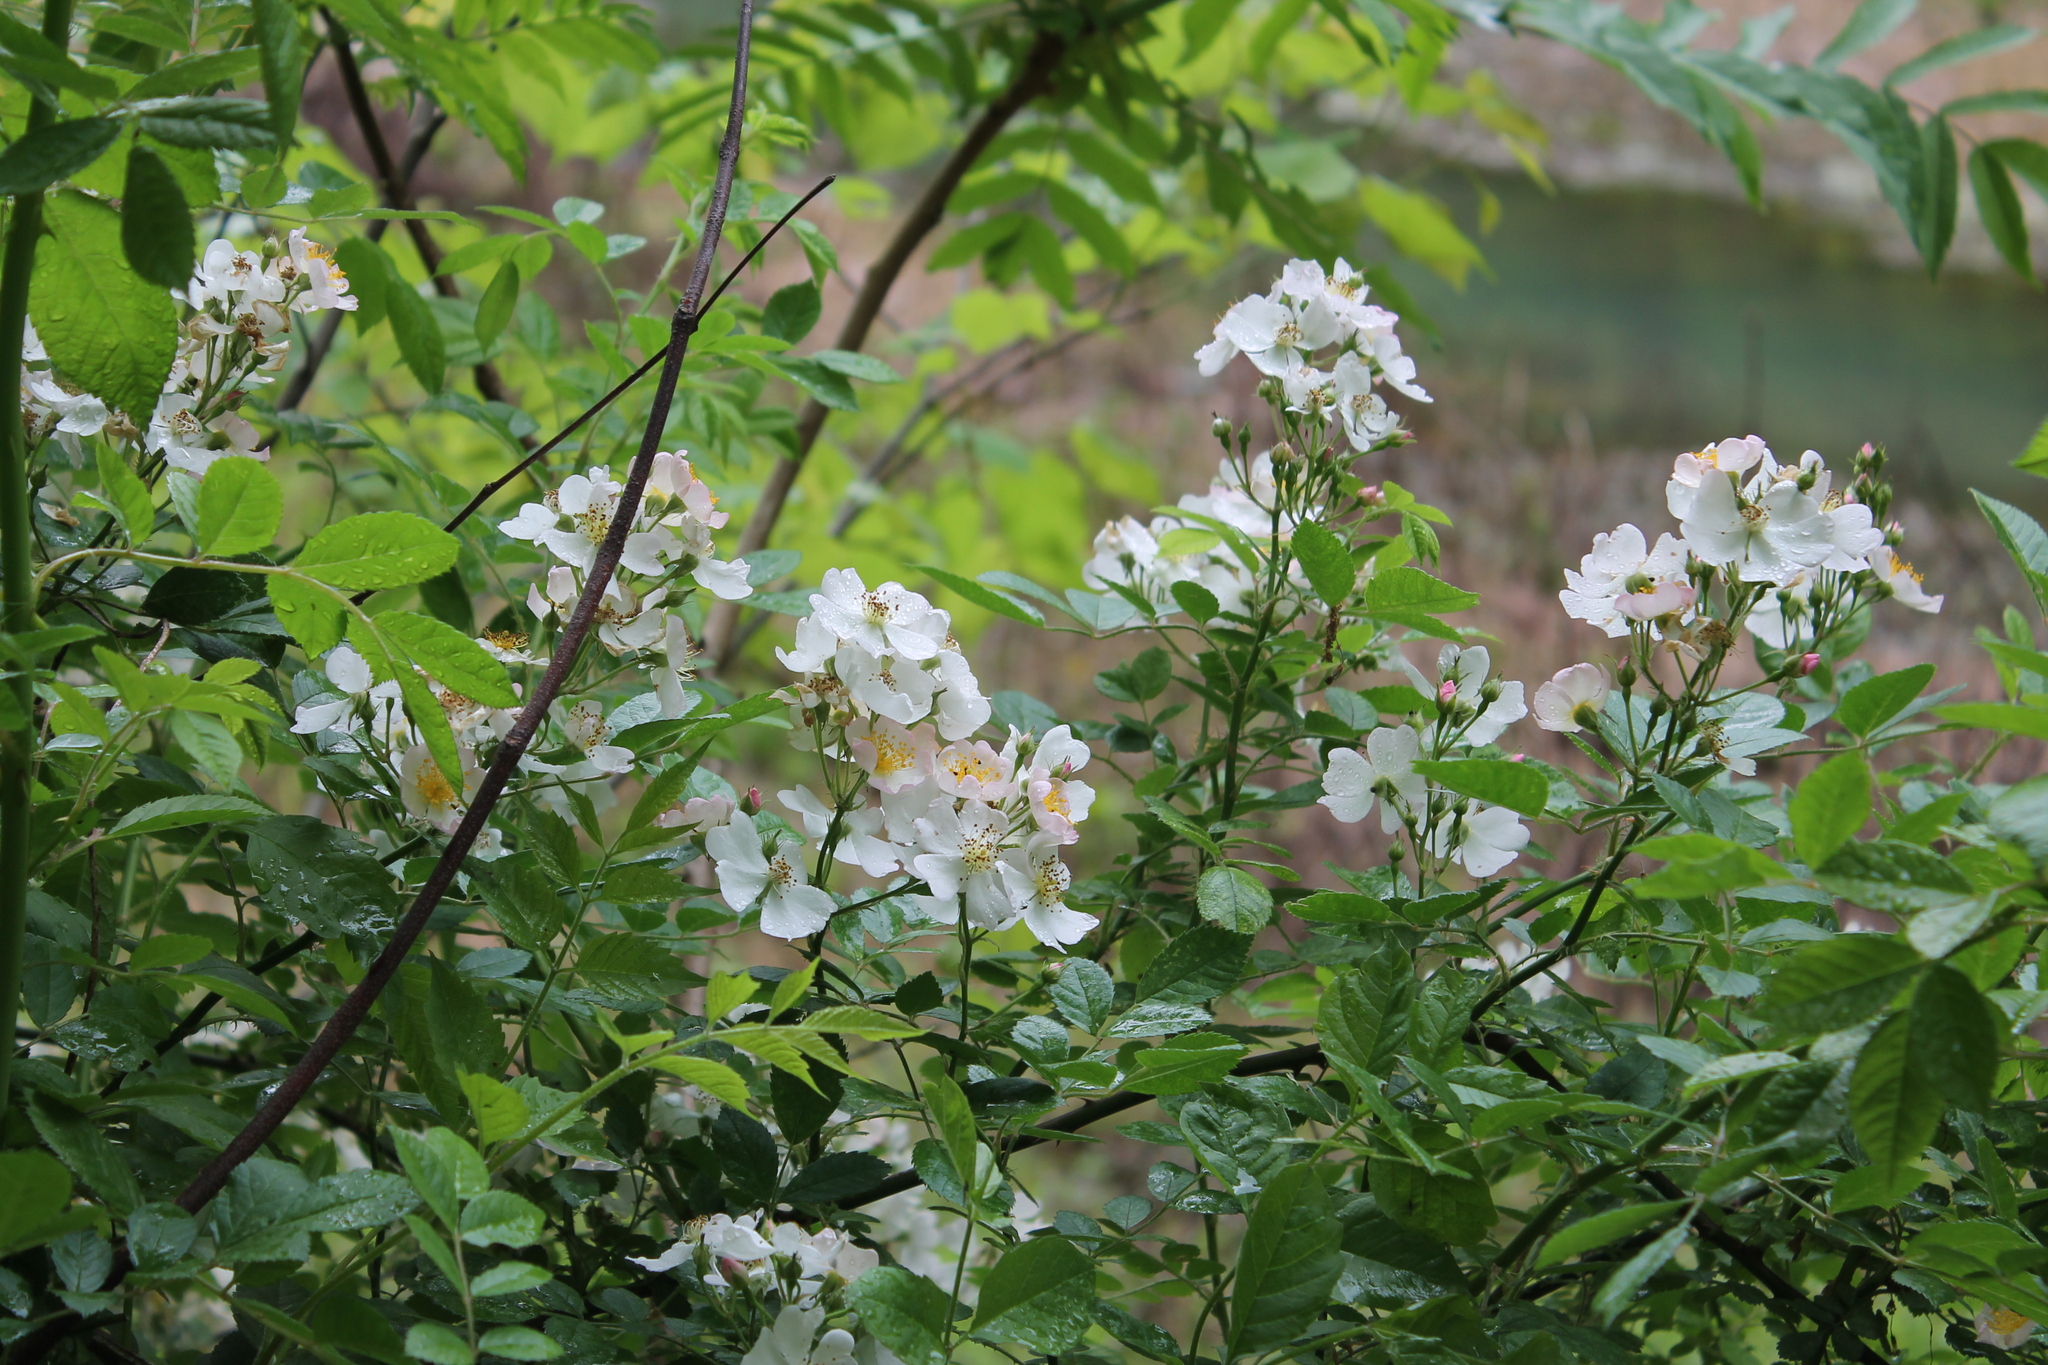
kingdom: Plantae
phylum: Tracheophyta
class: Magnoliopsida
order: Rosales
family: Rosaceae
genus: Rosa
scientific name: Rosa multiflora
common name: Multiflora rose
